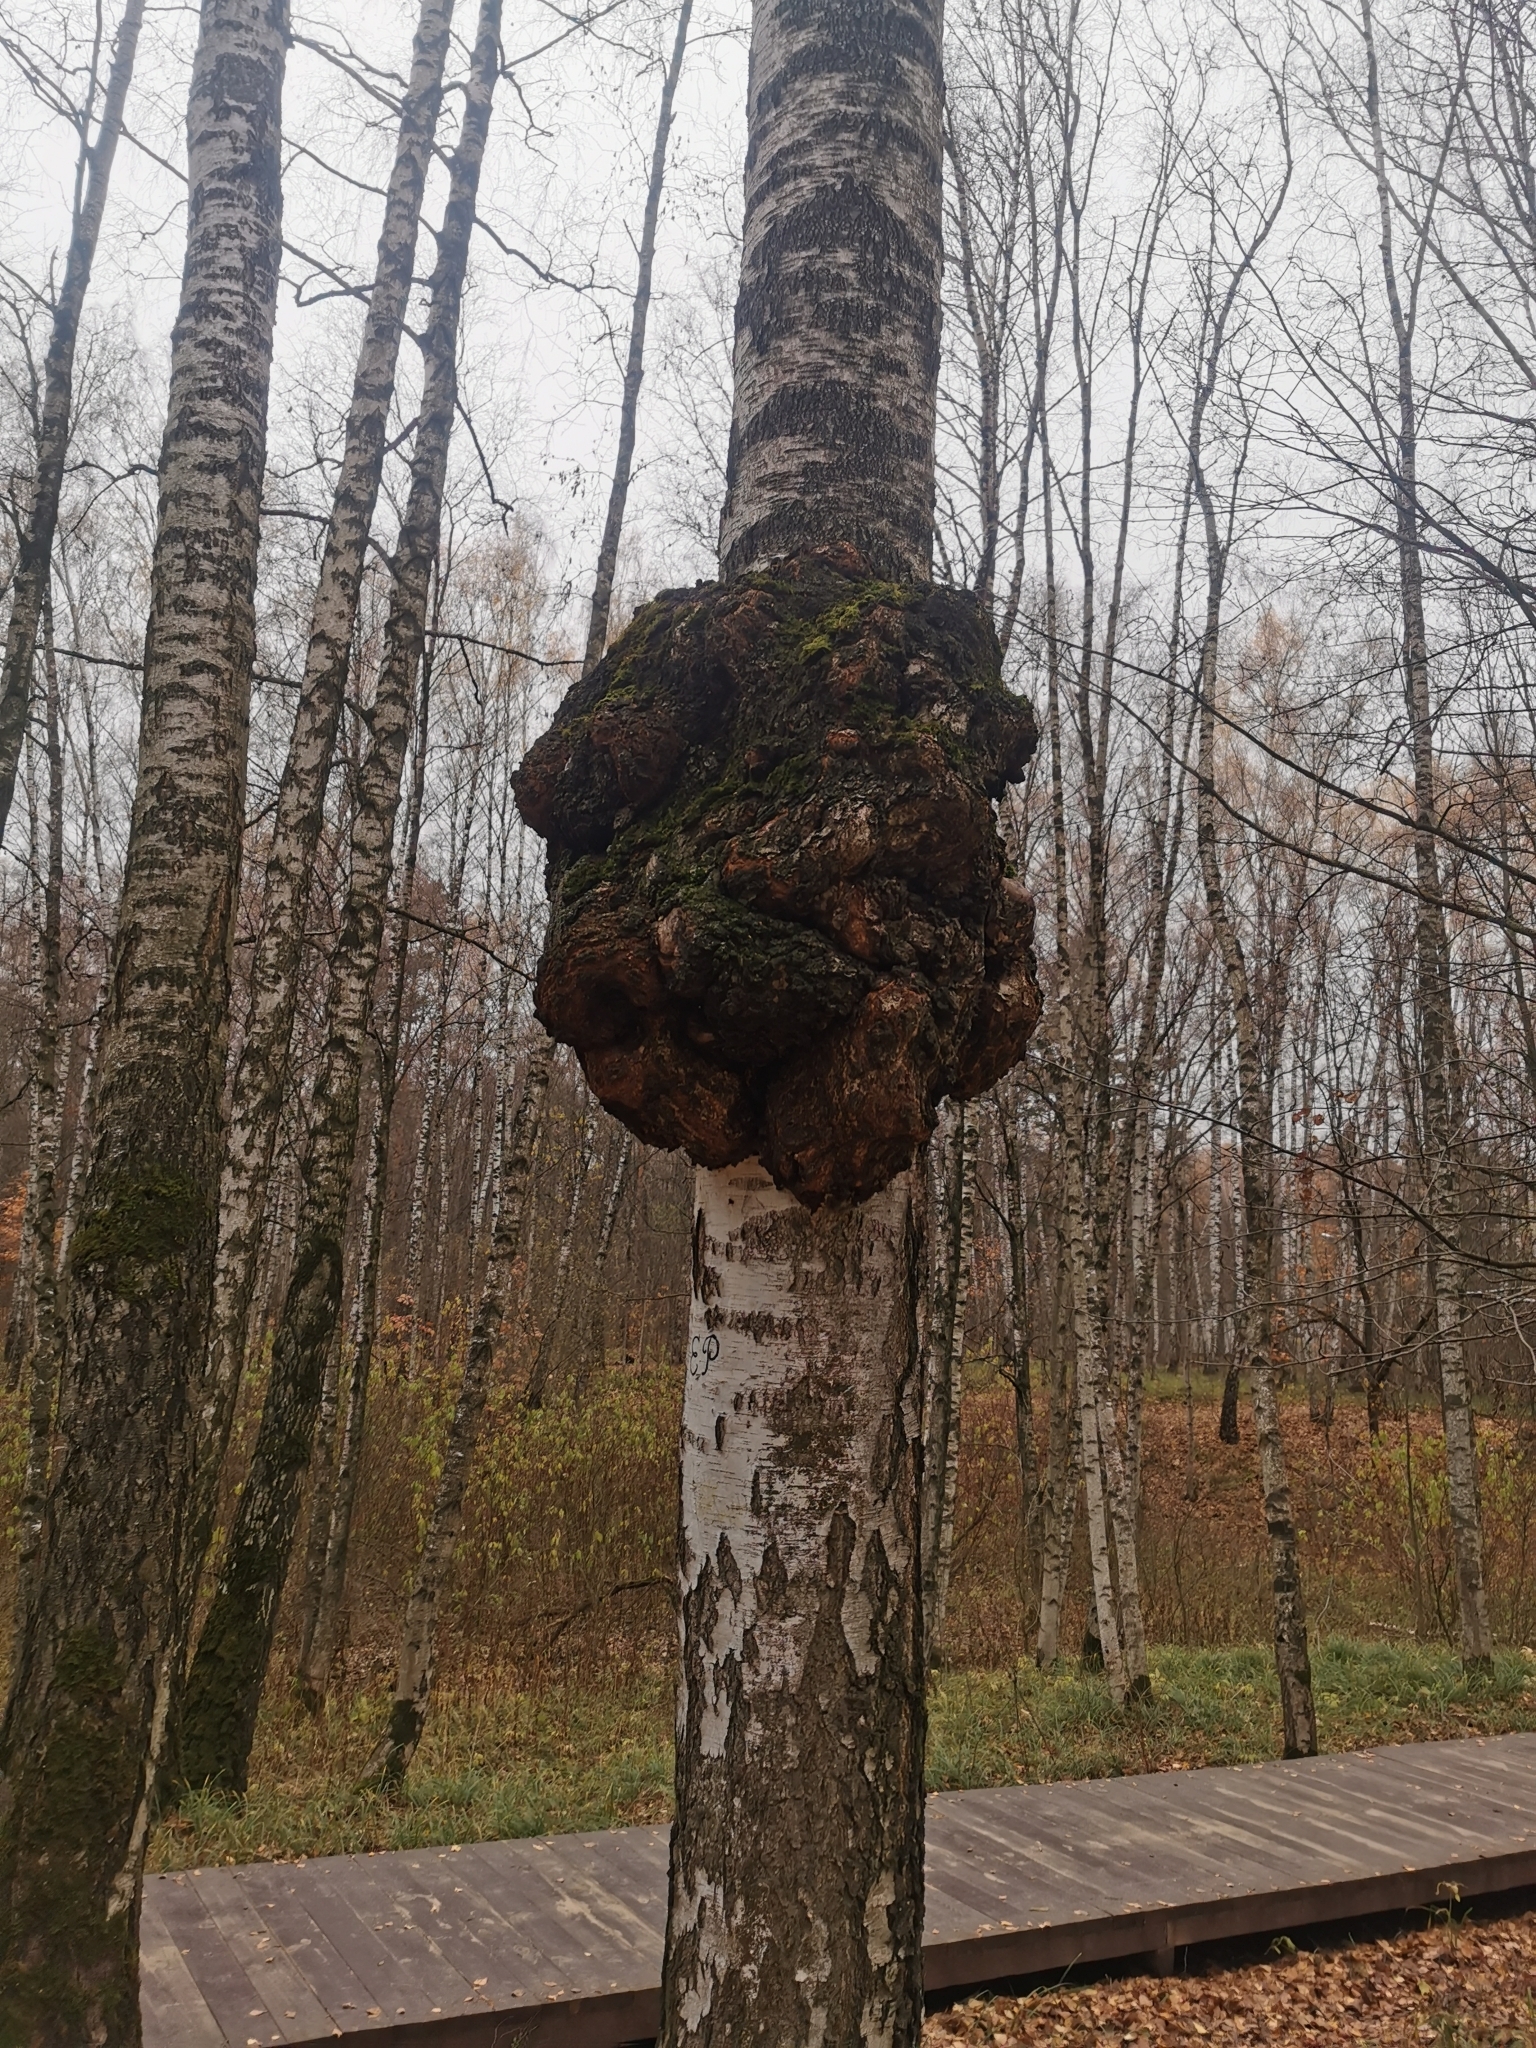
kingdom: Bacteria
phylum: Proteobacteria
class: Alphaproteobacteria
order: Rhizobiales
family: Rhizobiaceae
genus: Rhizobium
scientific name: Rhizobium Agrobacterium radiobacter
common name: Bacterial crown gall
